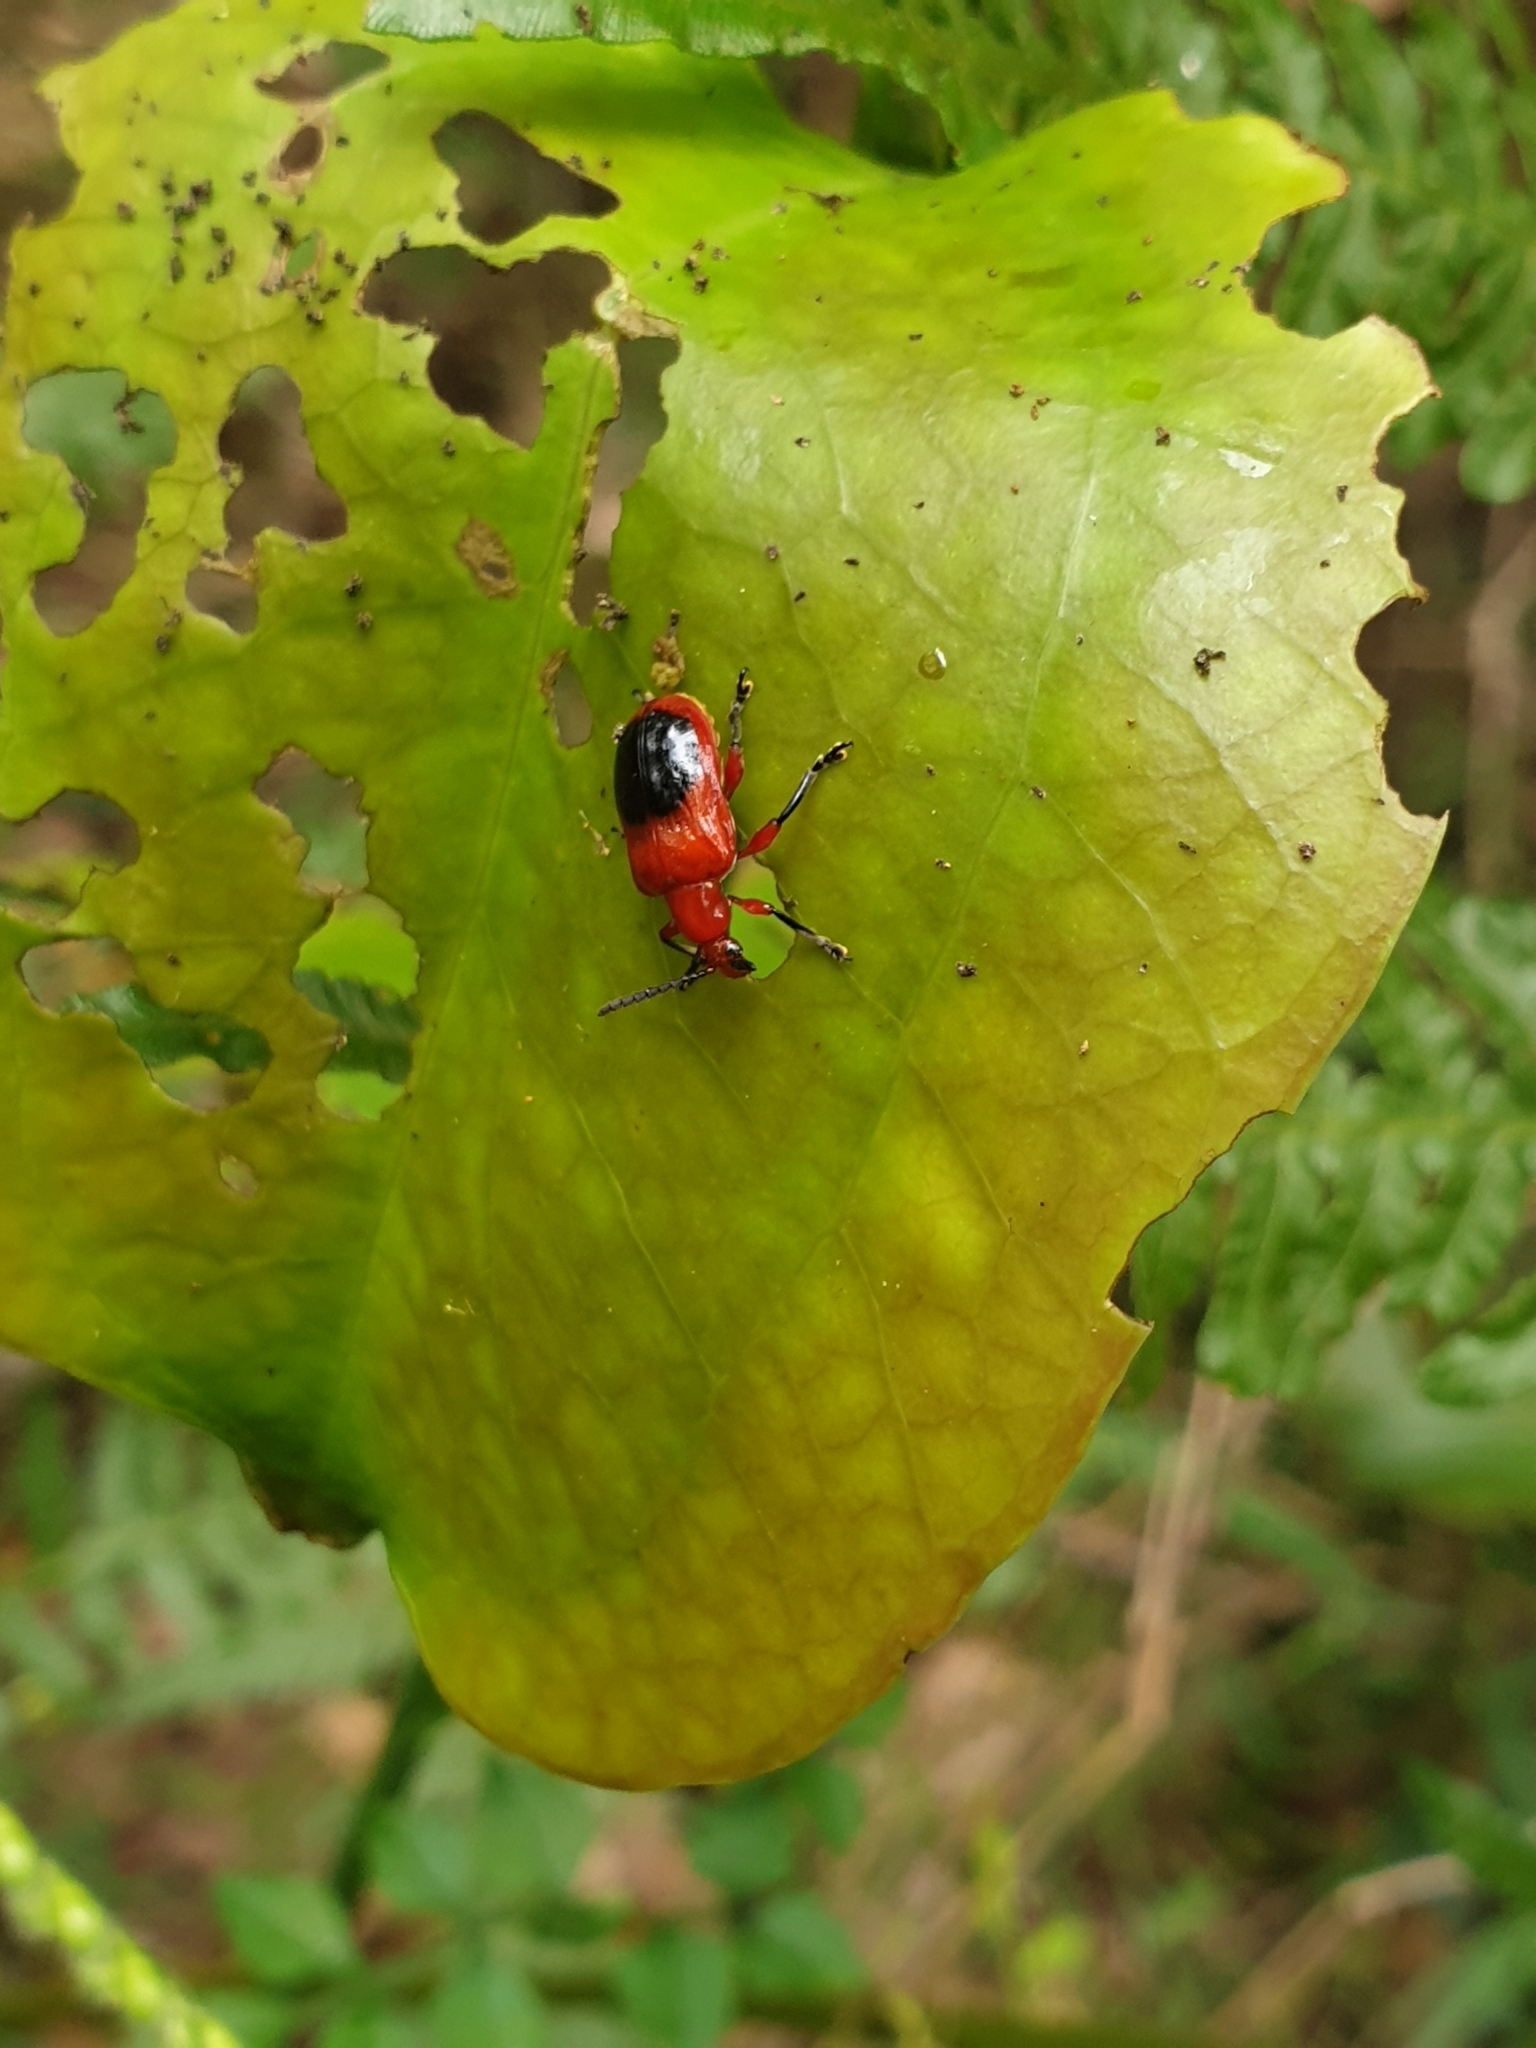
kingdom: Animalia
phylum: Arthropoda
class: Insecta
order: Coleoptera
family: Chrysomelidae
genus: Lilioceris
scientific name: Lilioceris
